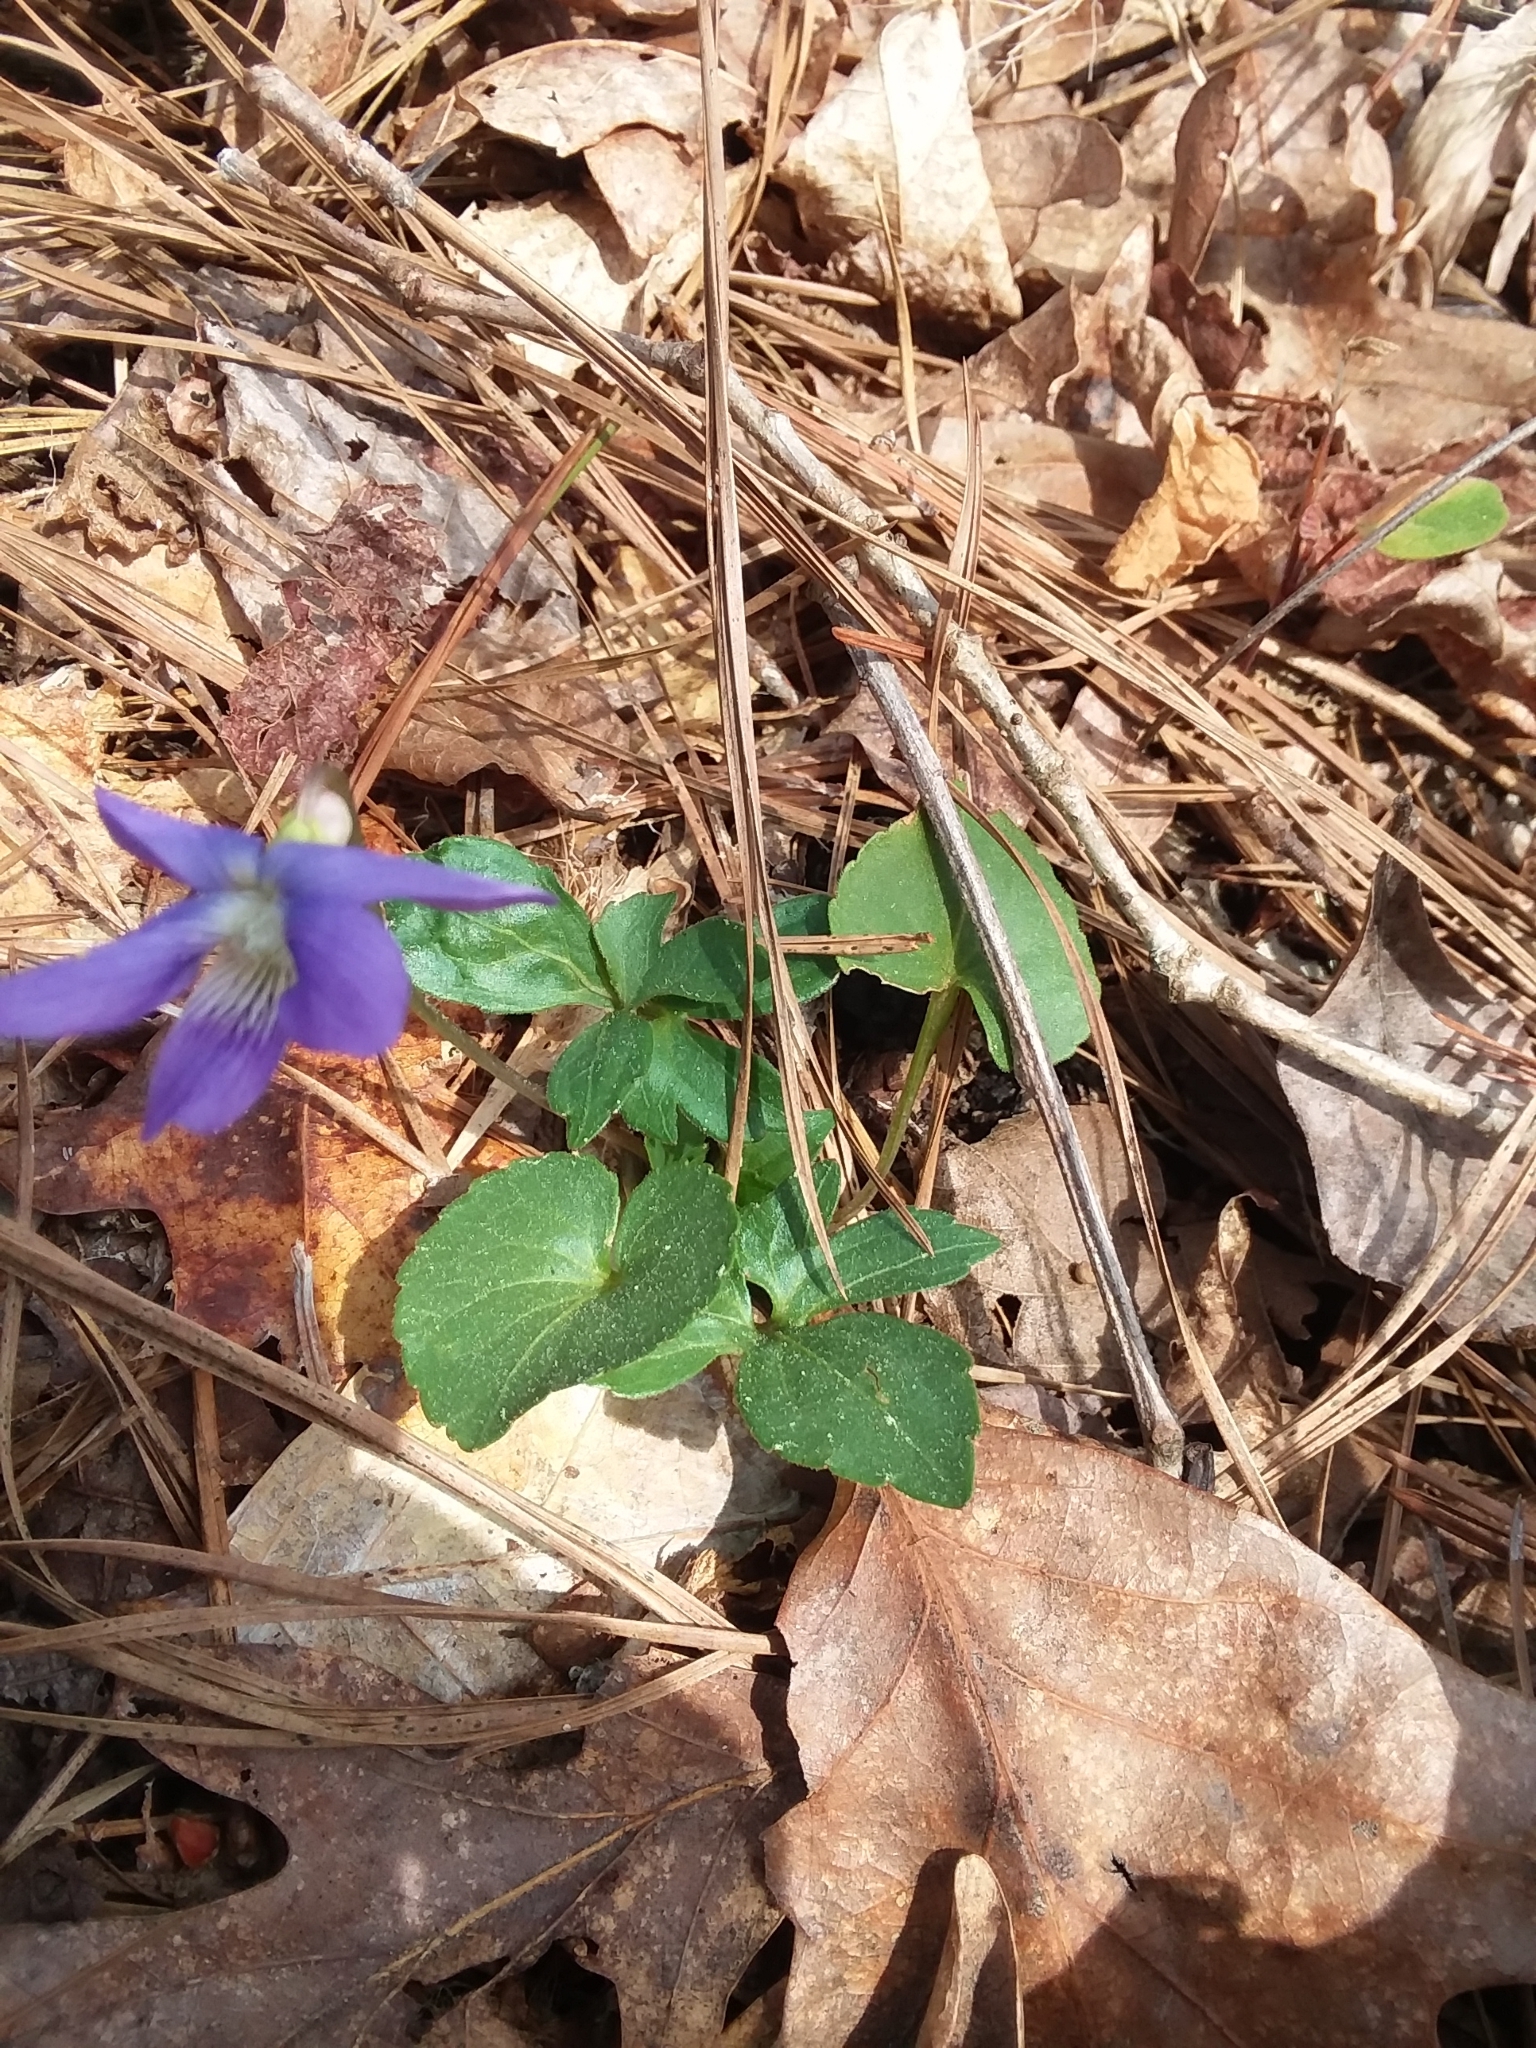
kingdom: Plantae
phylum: Tracheophyta
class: Magnoliopsida
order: Malpighiales
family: Violaceae
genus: Viola
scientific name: Viola palmata
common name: Early blue violet
